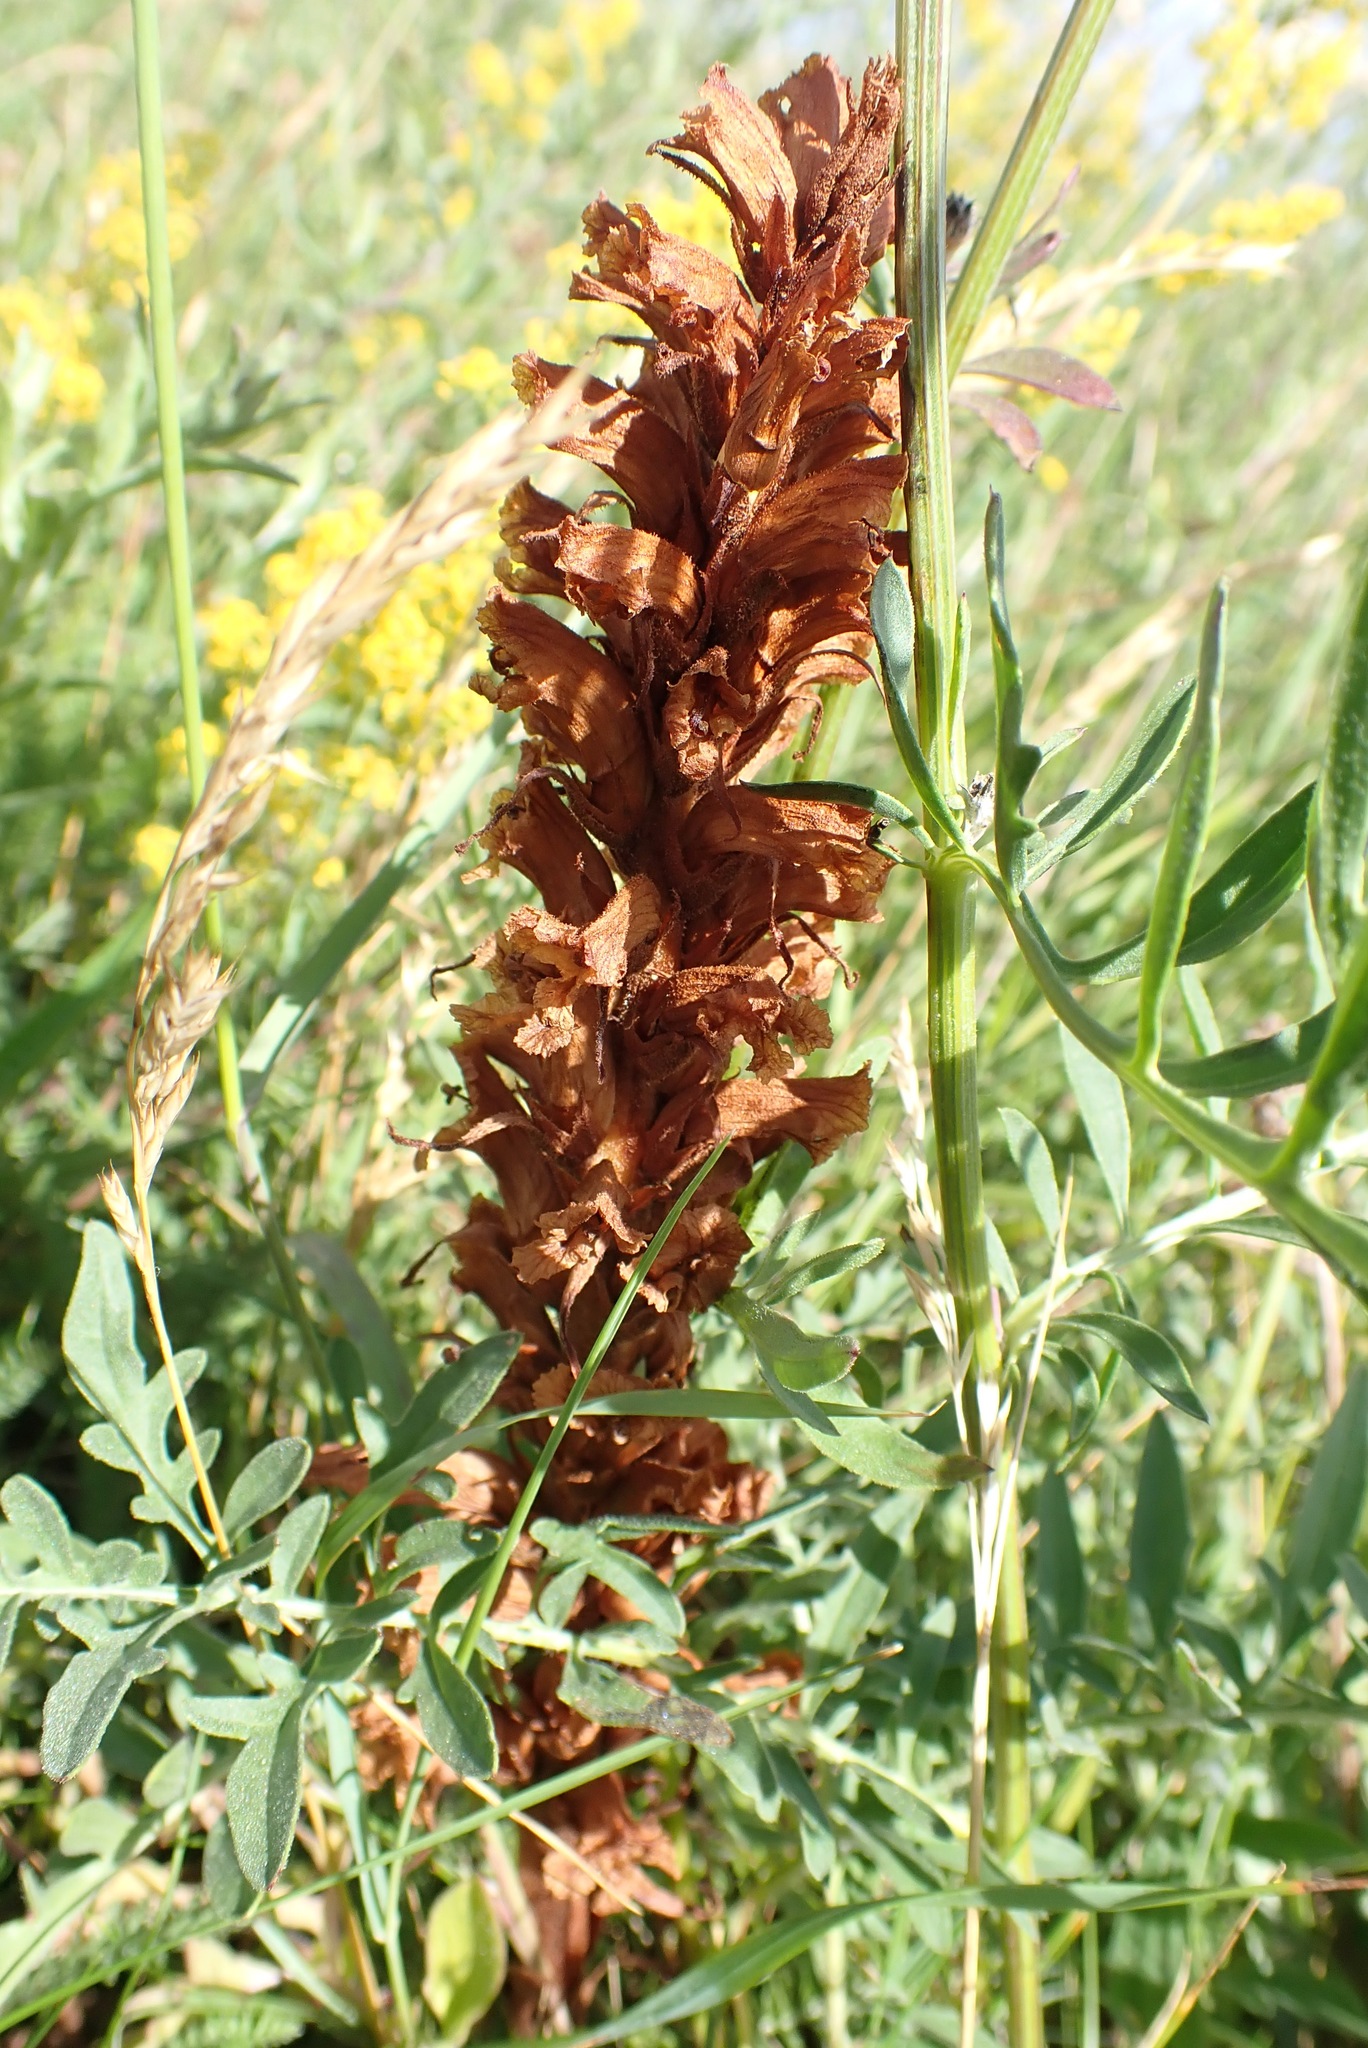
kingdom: Plantae
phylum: Tracheophyta
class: Magnoliopsida
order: Lamiales
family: Orobanchaceae
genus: Orobanche
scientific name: Orobanche elatior
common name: Knapweed broomrape
